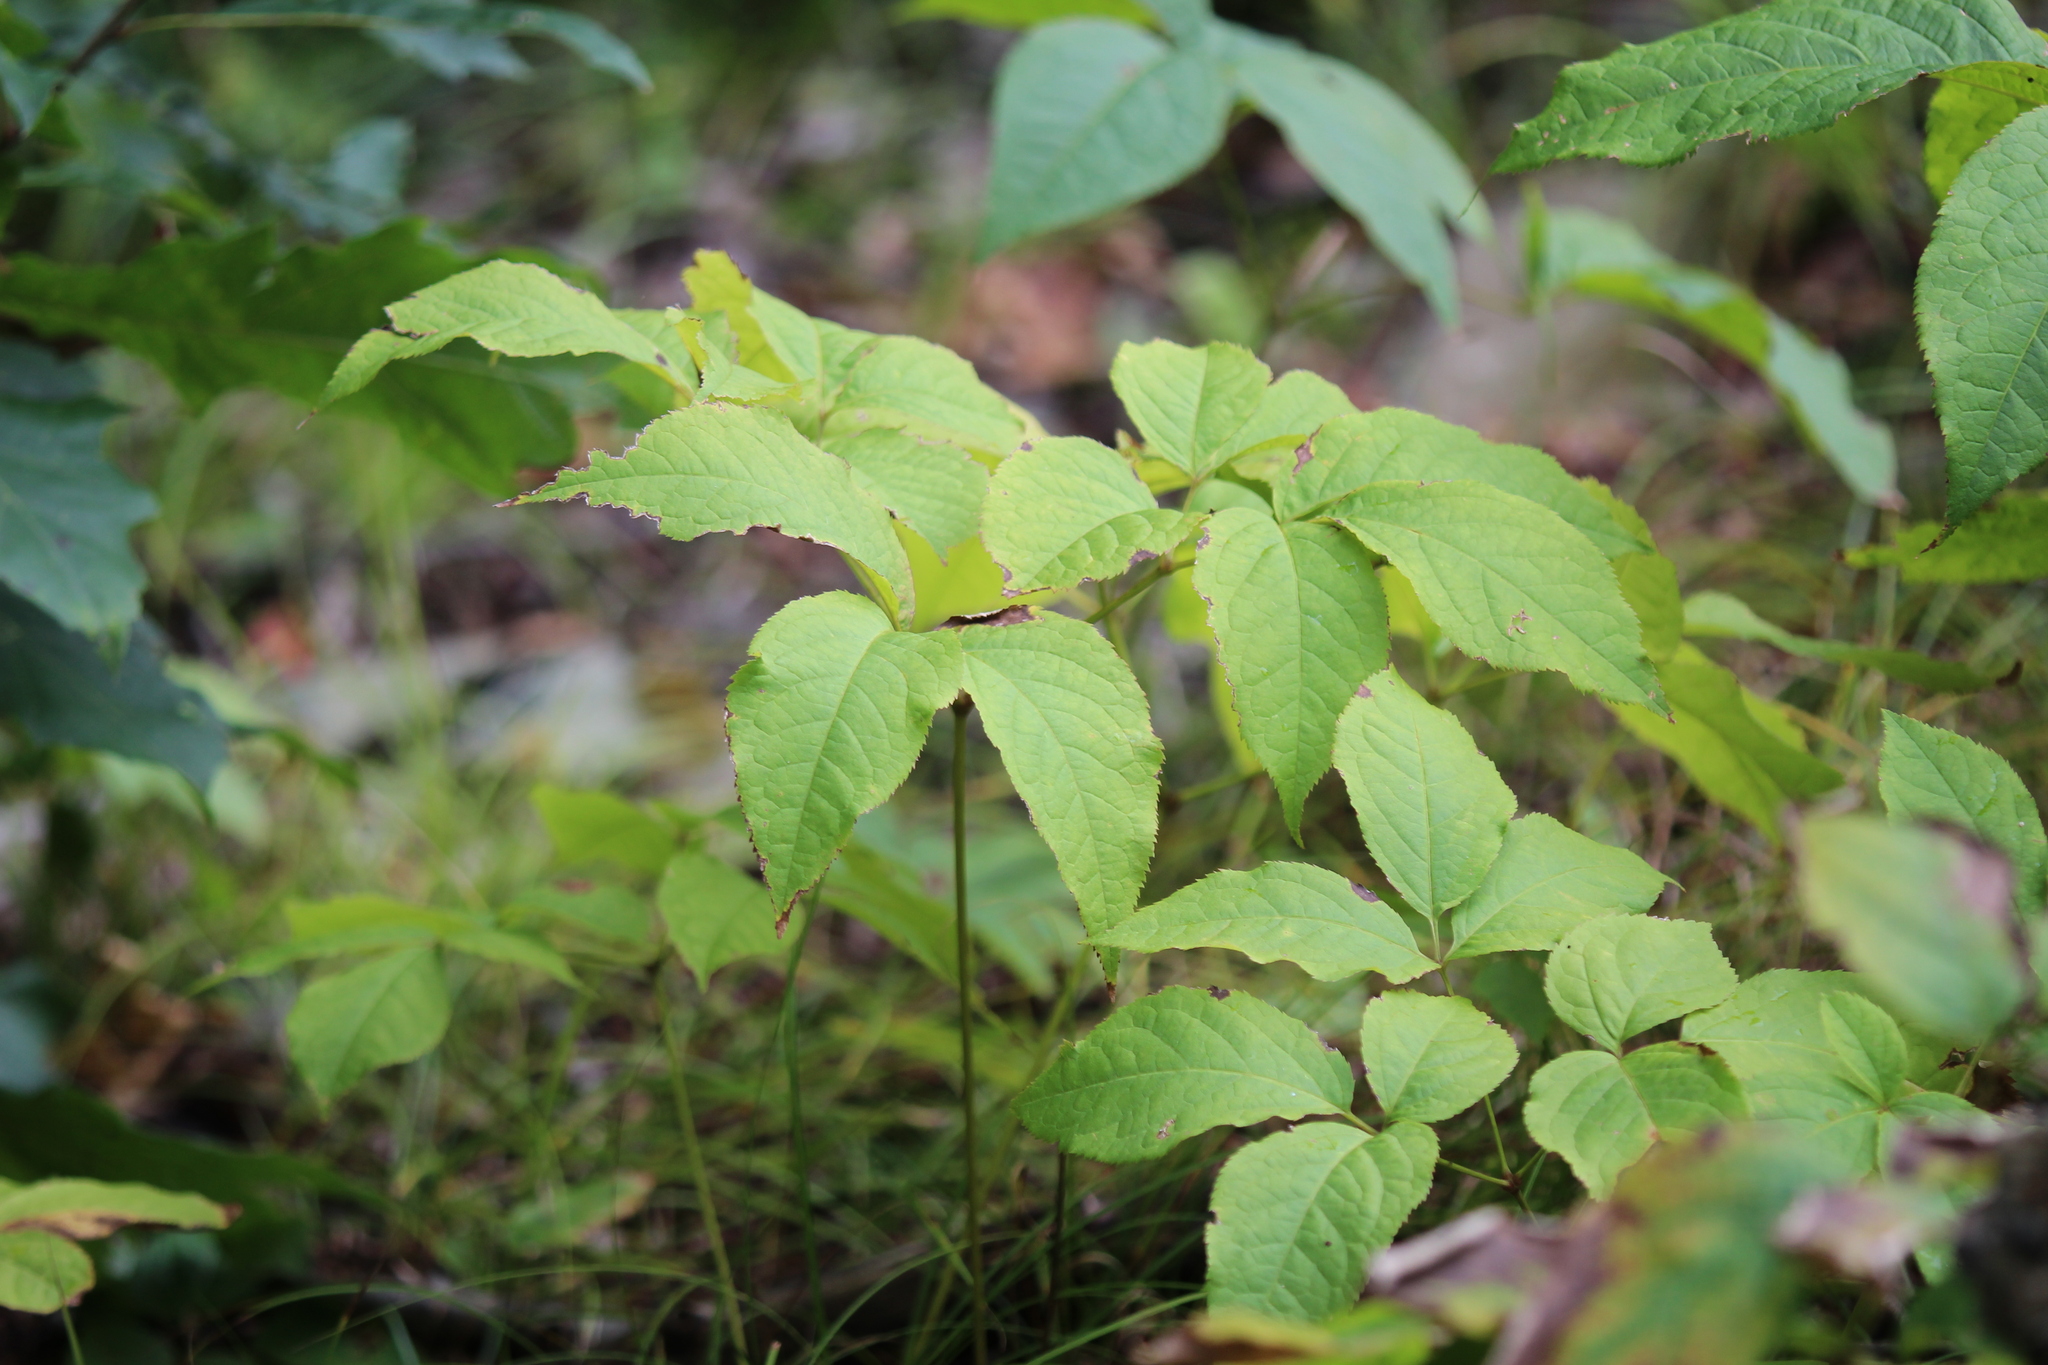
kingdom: Plantae
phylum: Tracheophyta
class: Magnoliopsida
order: Apiales
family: Araliaceae
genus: Aralia
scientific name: Aralia nudicaulis
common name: Wild sarsaparilla
